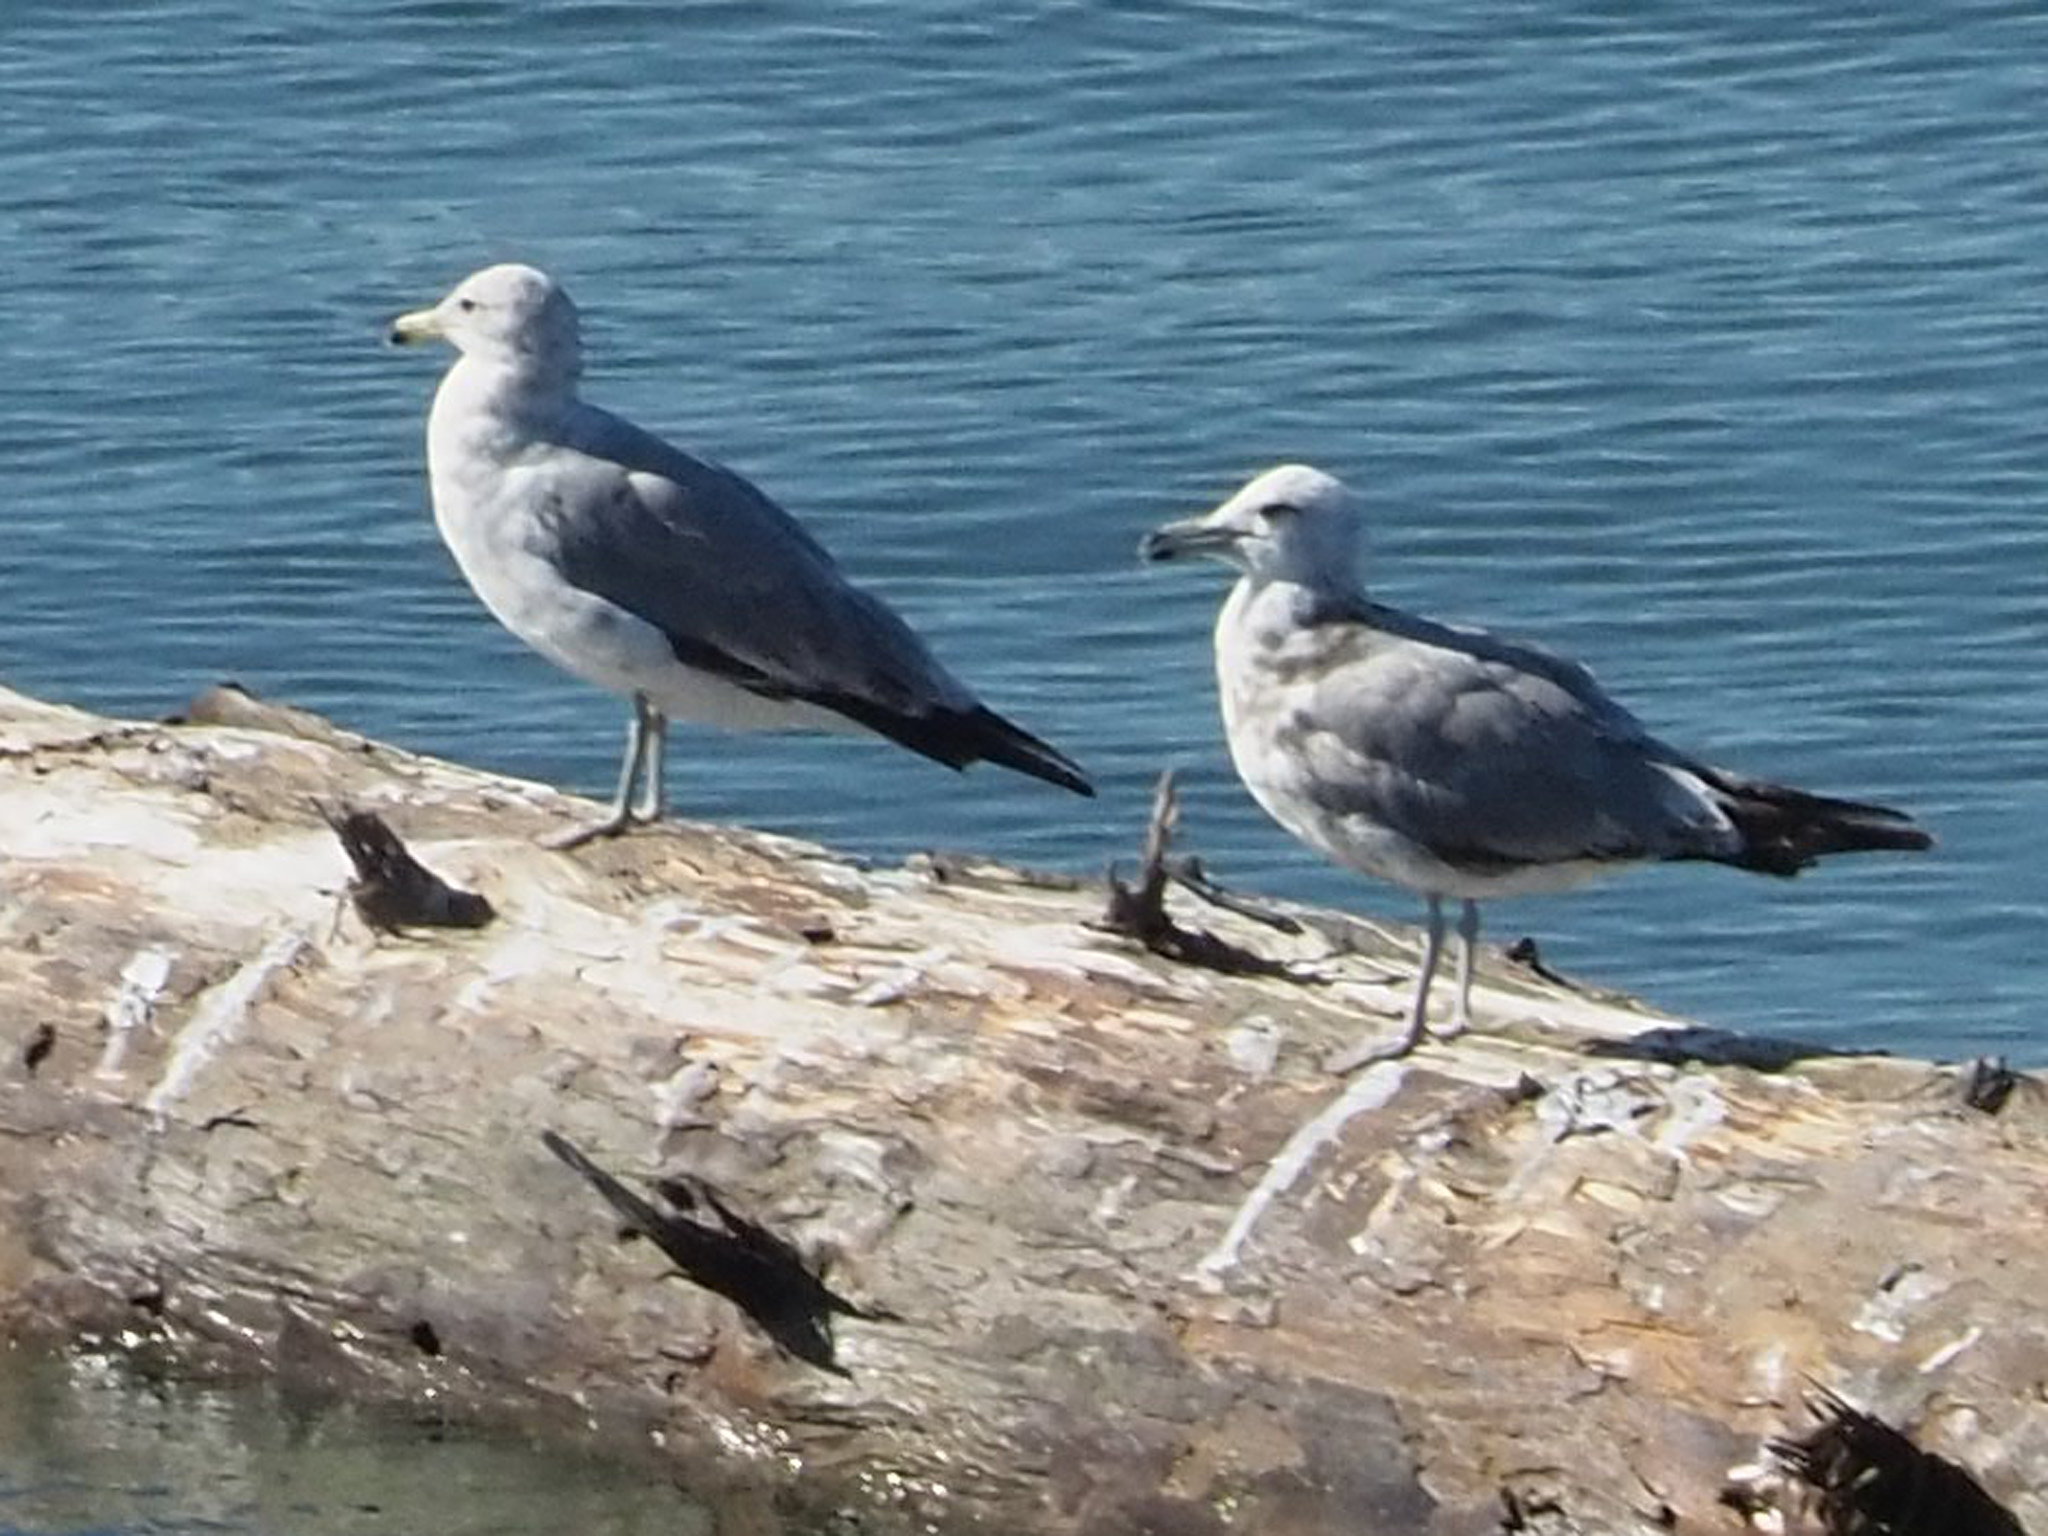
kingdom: Animalia
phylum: Chordata
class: Aves
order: Charadriiformes
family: Laridae
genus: Larus
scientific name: Larus californicus
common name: California gull
